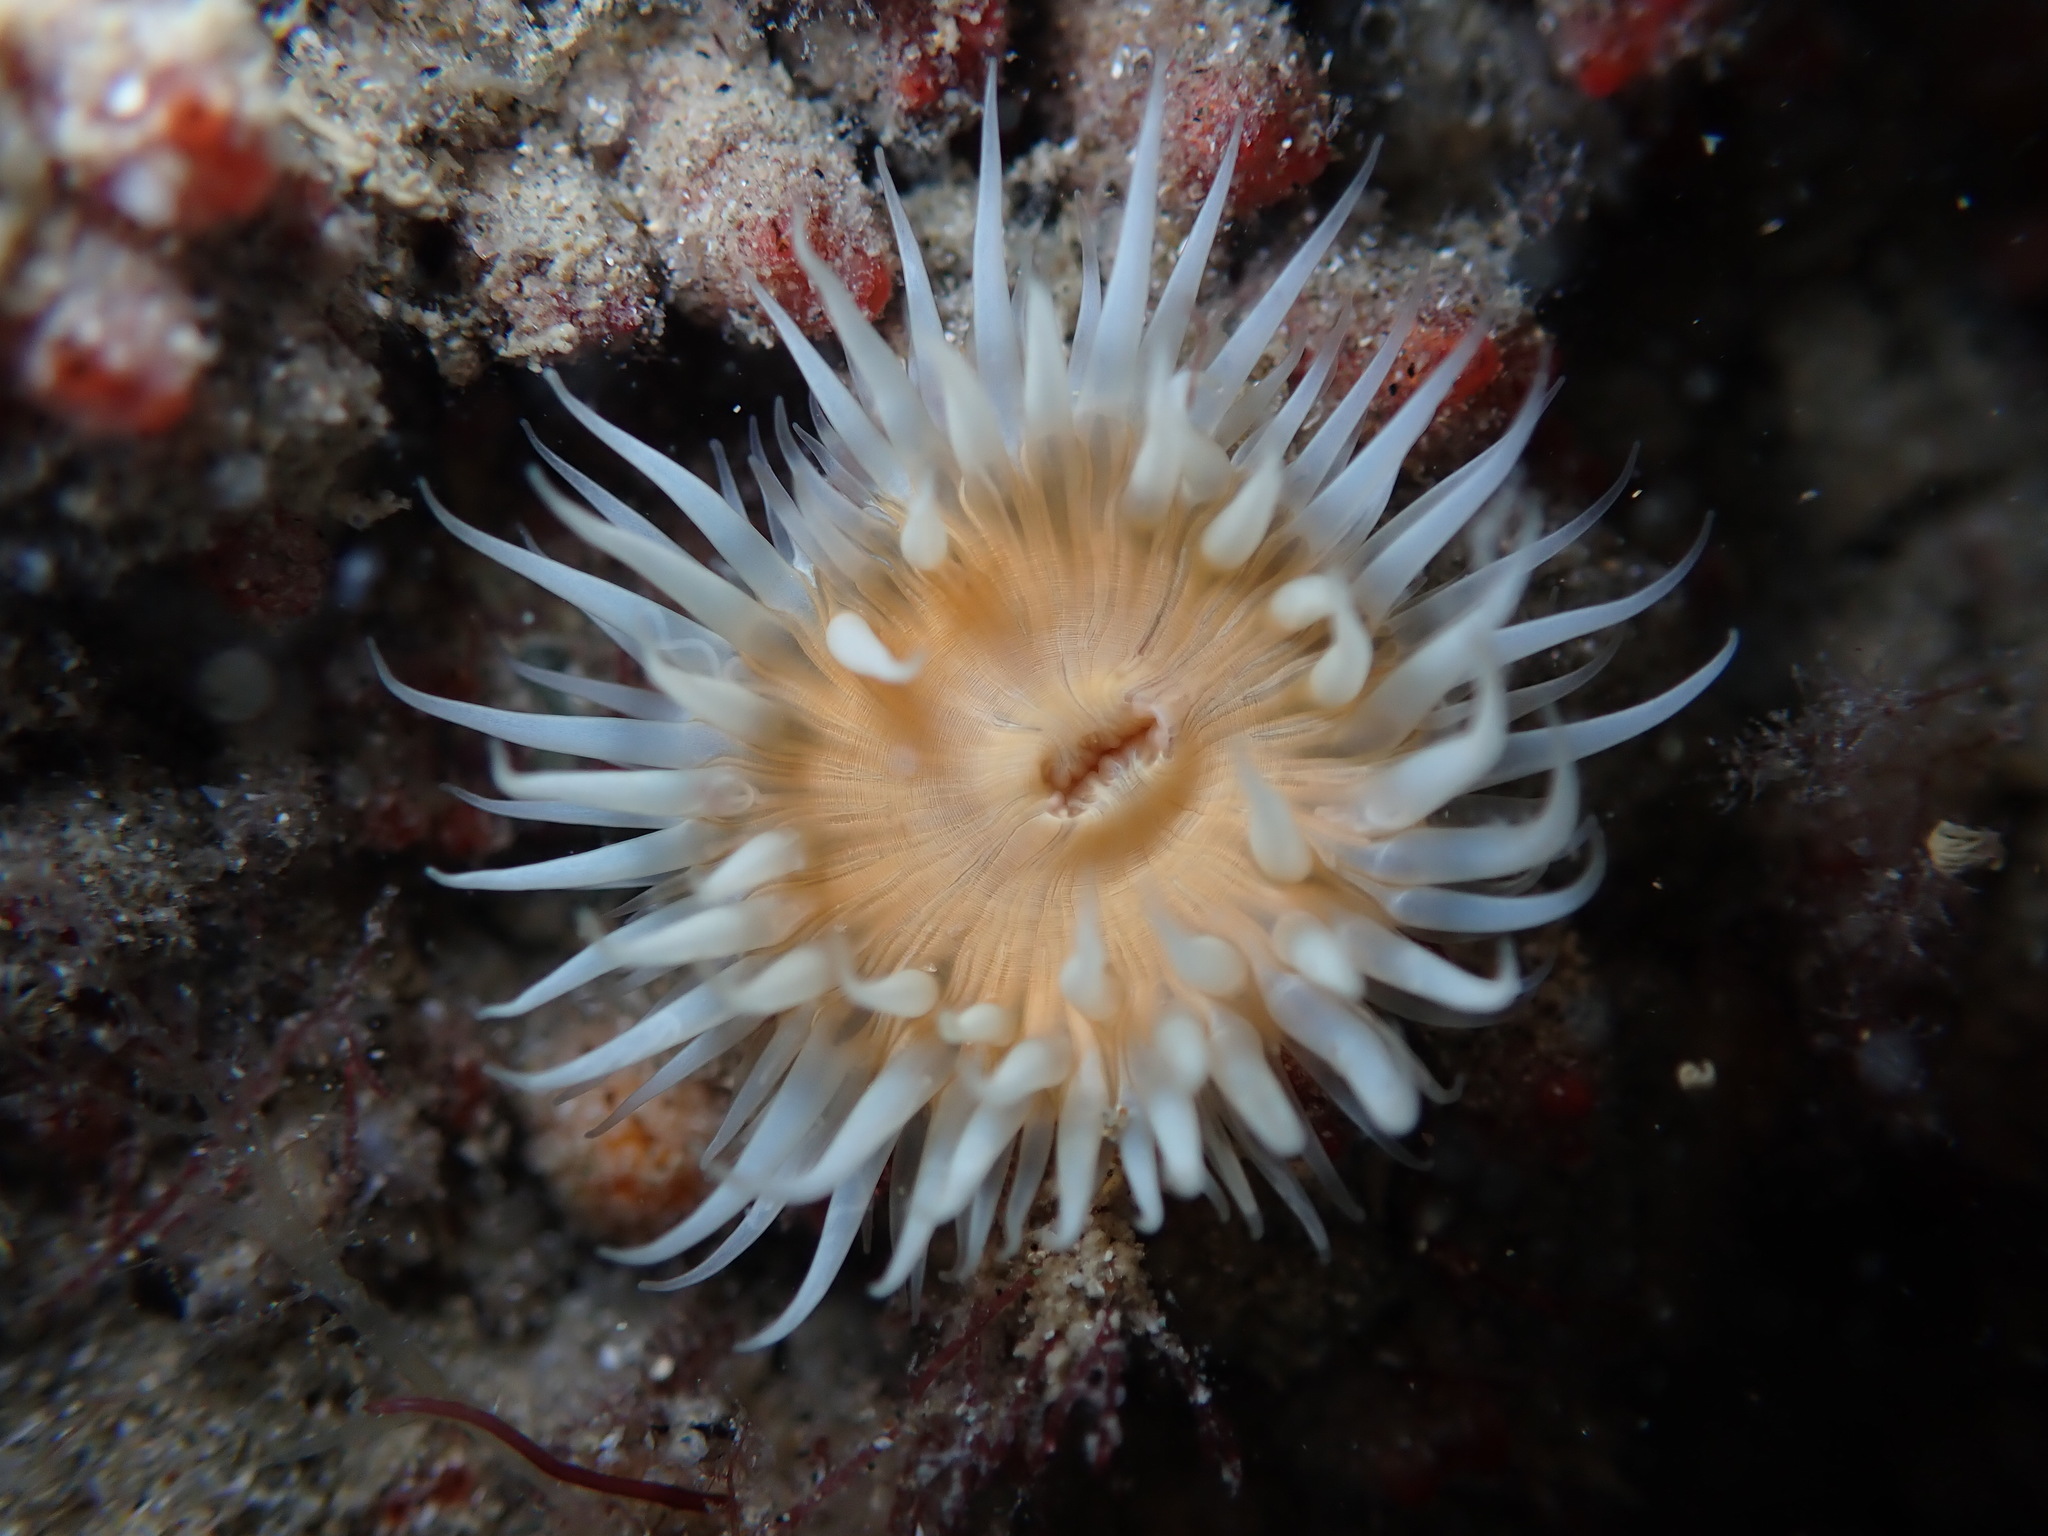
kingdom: Animalia
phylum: Cnidaria
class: Anthozoa
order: Actiniaria
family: Sagartiidae
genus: Anthothoe
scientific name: Anthothoe albocincta
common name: Orange striped anemone
